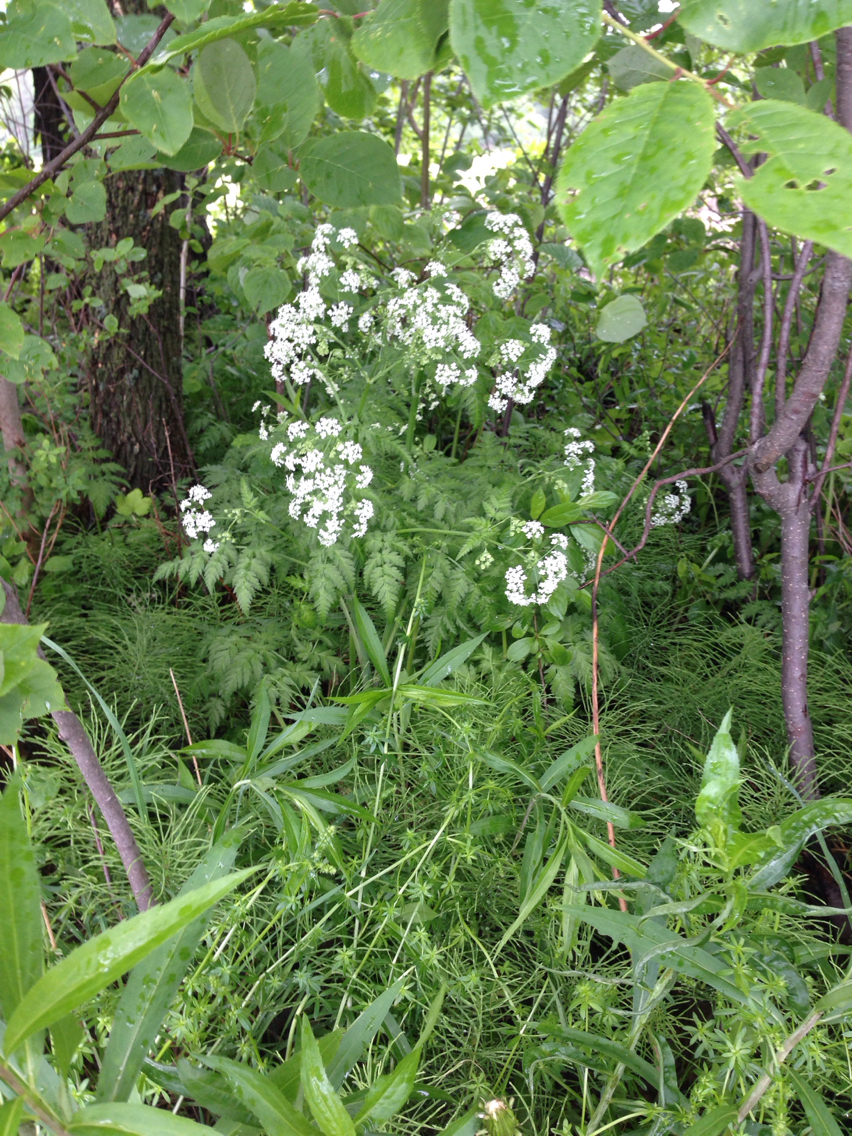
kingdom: Plantae
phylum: Tracheophyta
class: Magnoliopsida
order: Apiales
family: Apiaceae
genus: Anthriscus
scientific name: Anthriscus sylvestris
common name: Cow parsley
